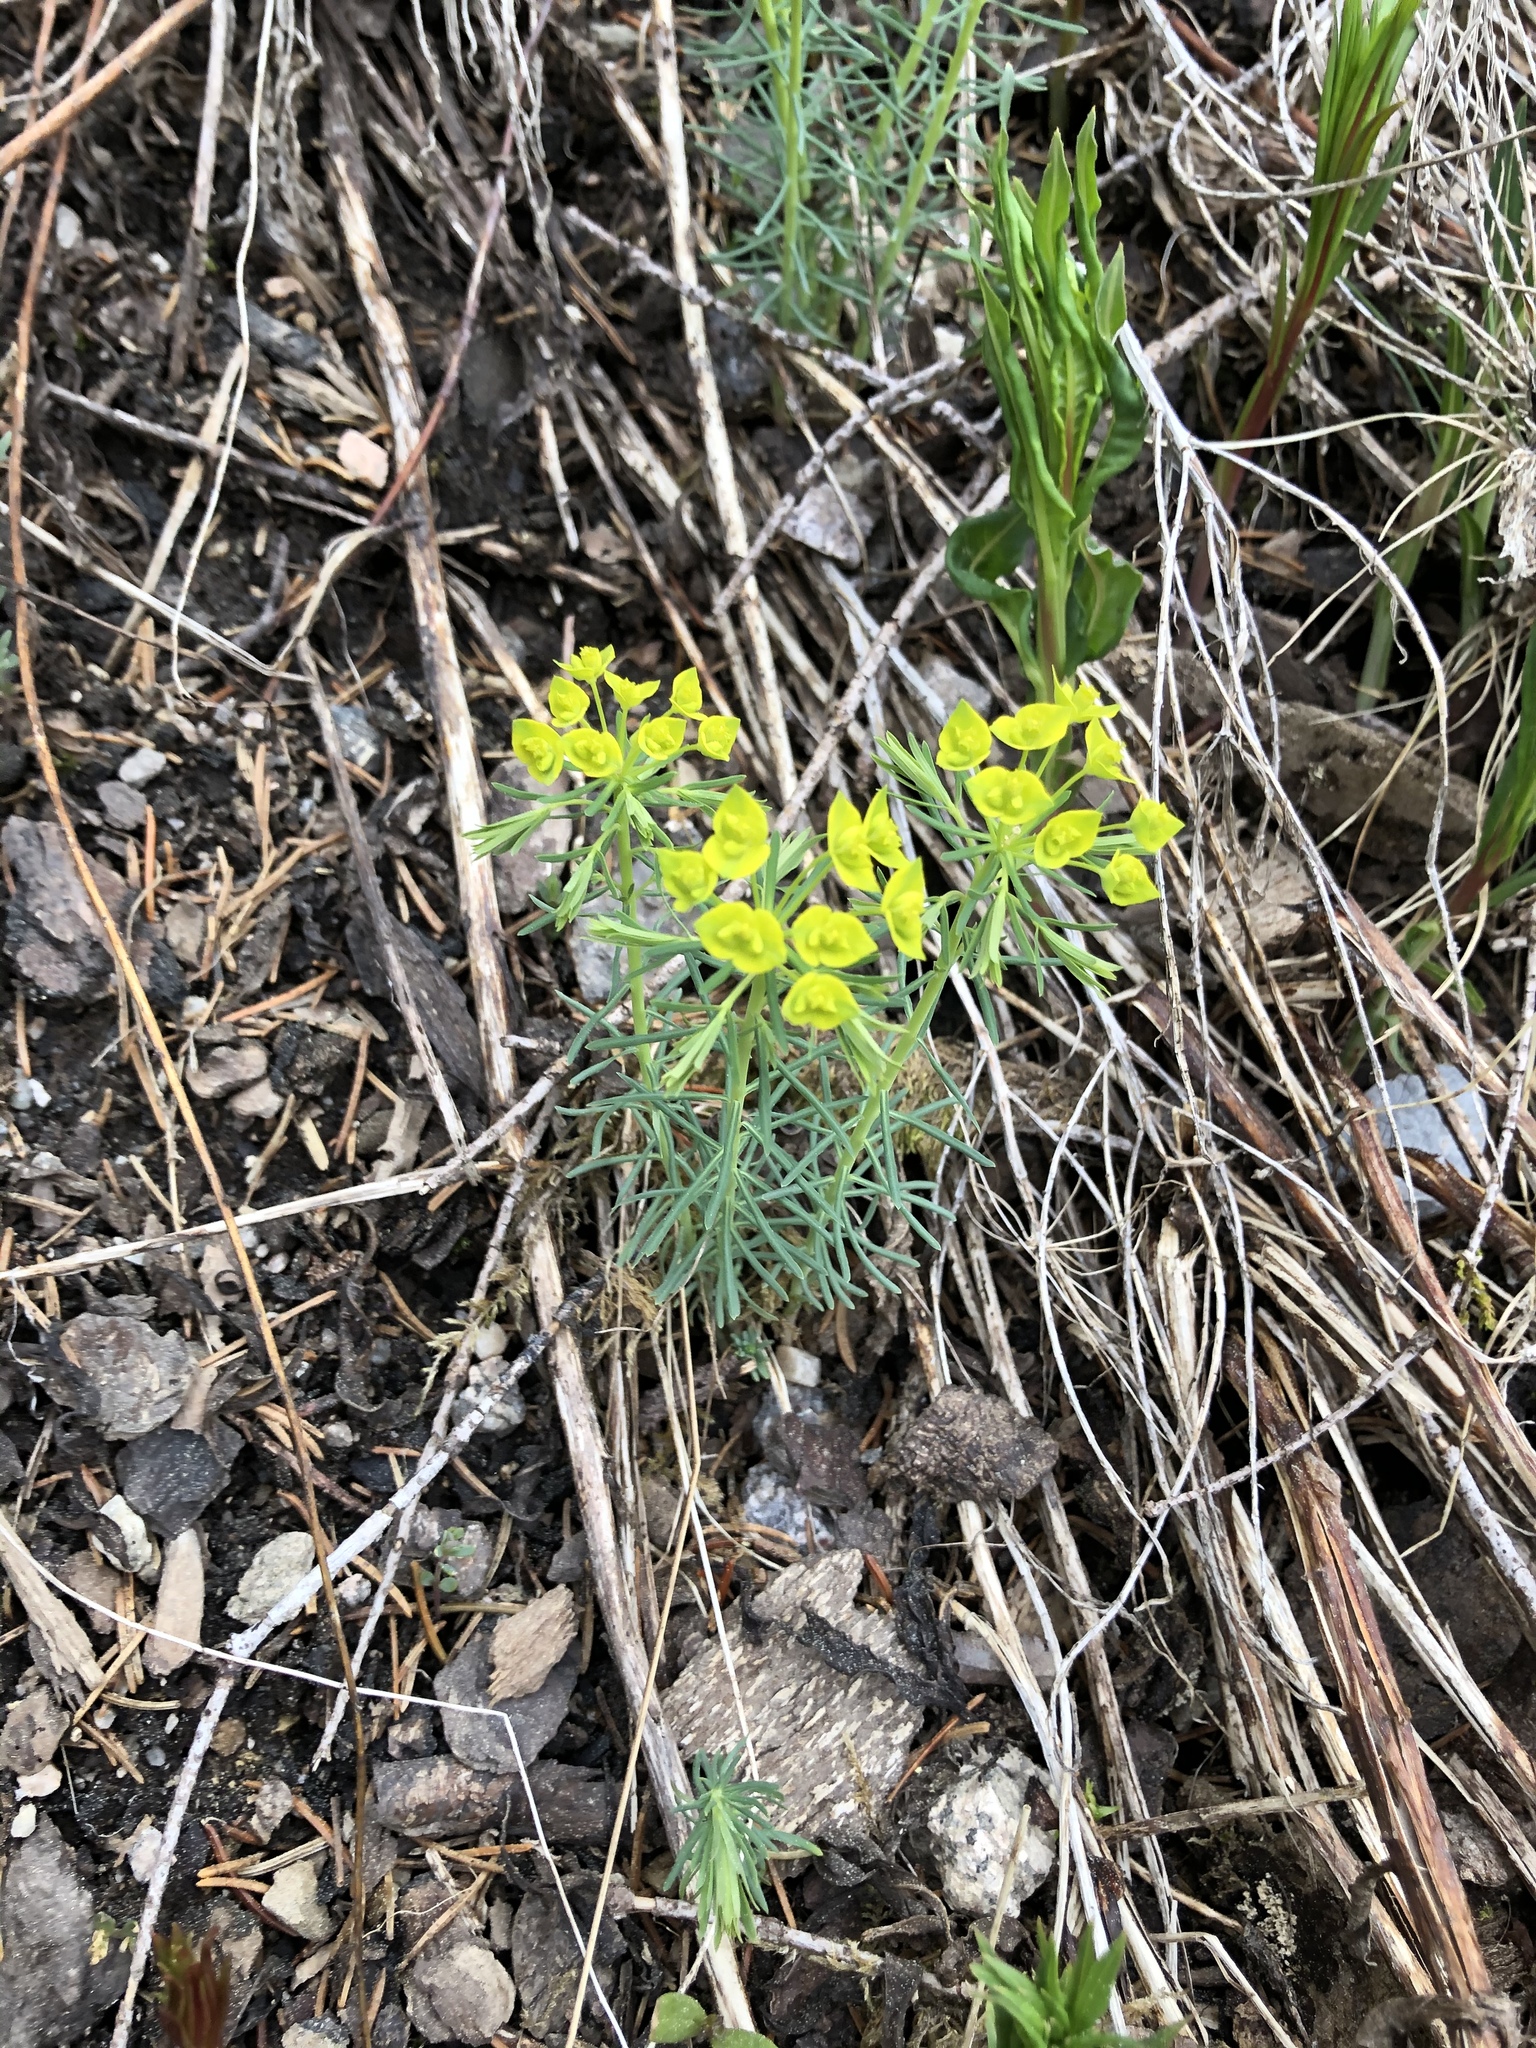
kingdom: Plantae
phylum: Tracheophyta
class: Magnoliopsida
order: Malpighiales
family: Euphorbiaceae
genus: Euphorbia
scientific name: Euphorbia cyparissias
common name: Cypress spurge
